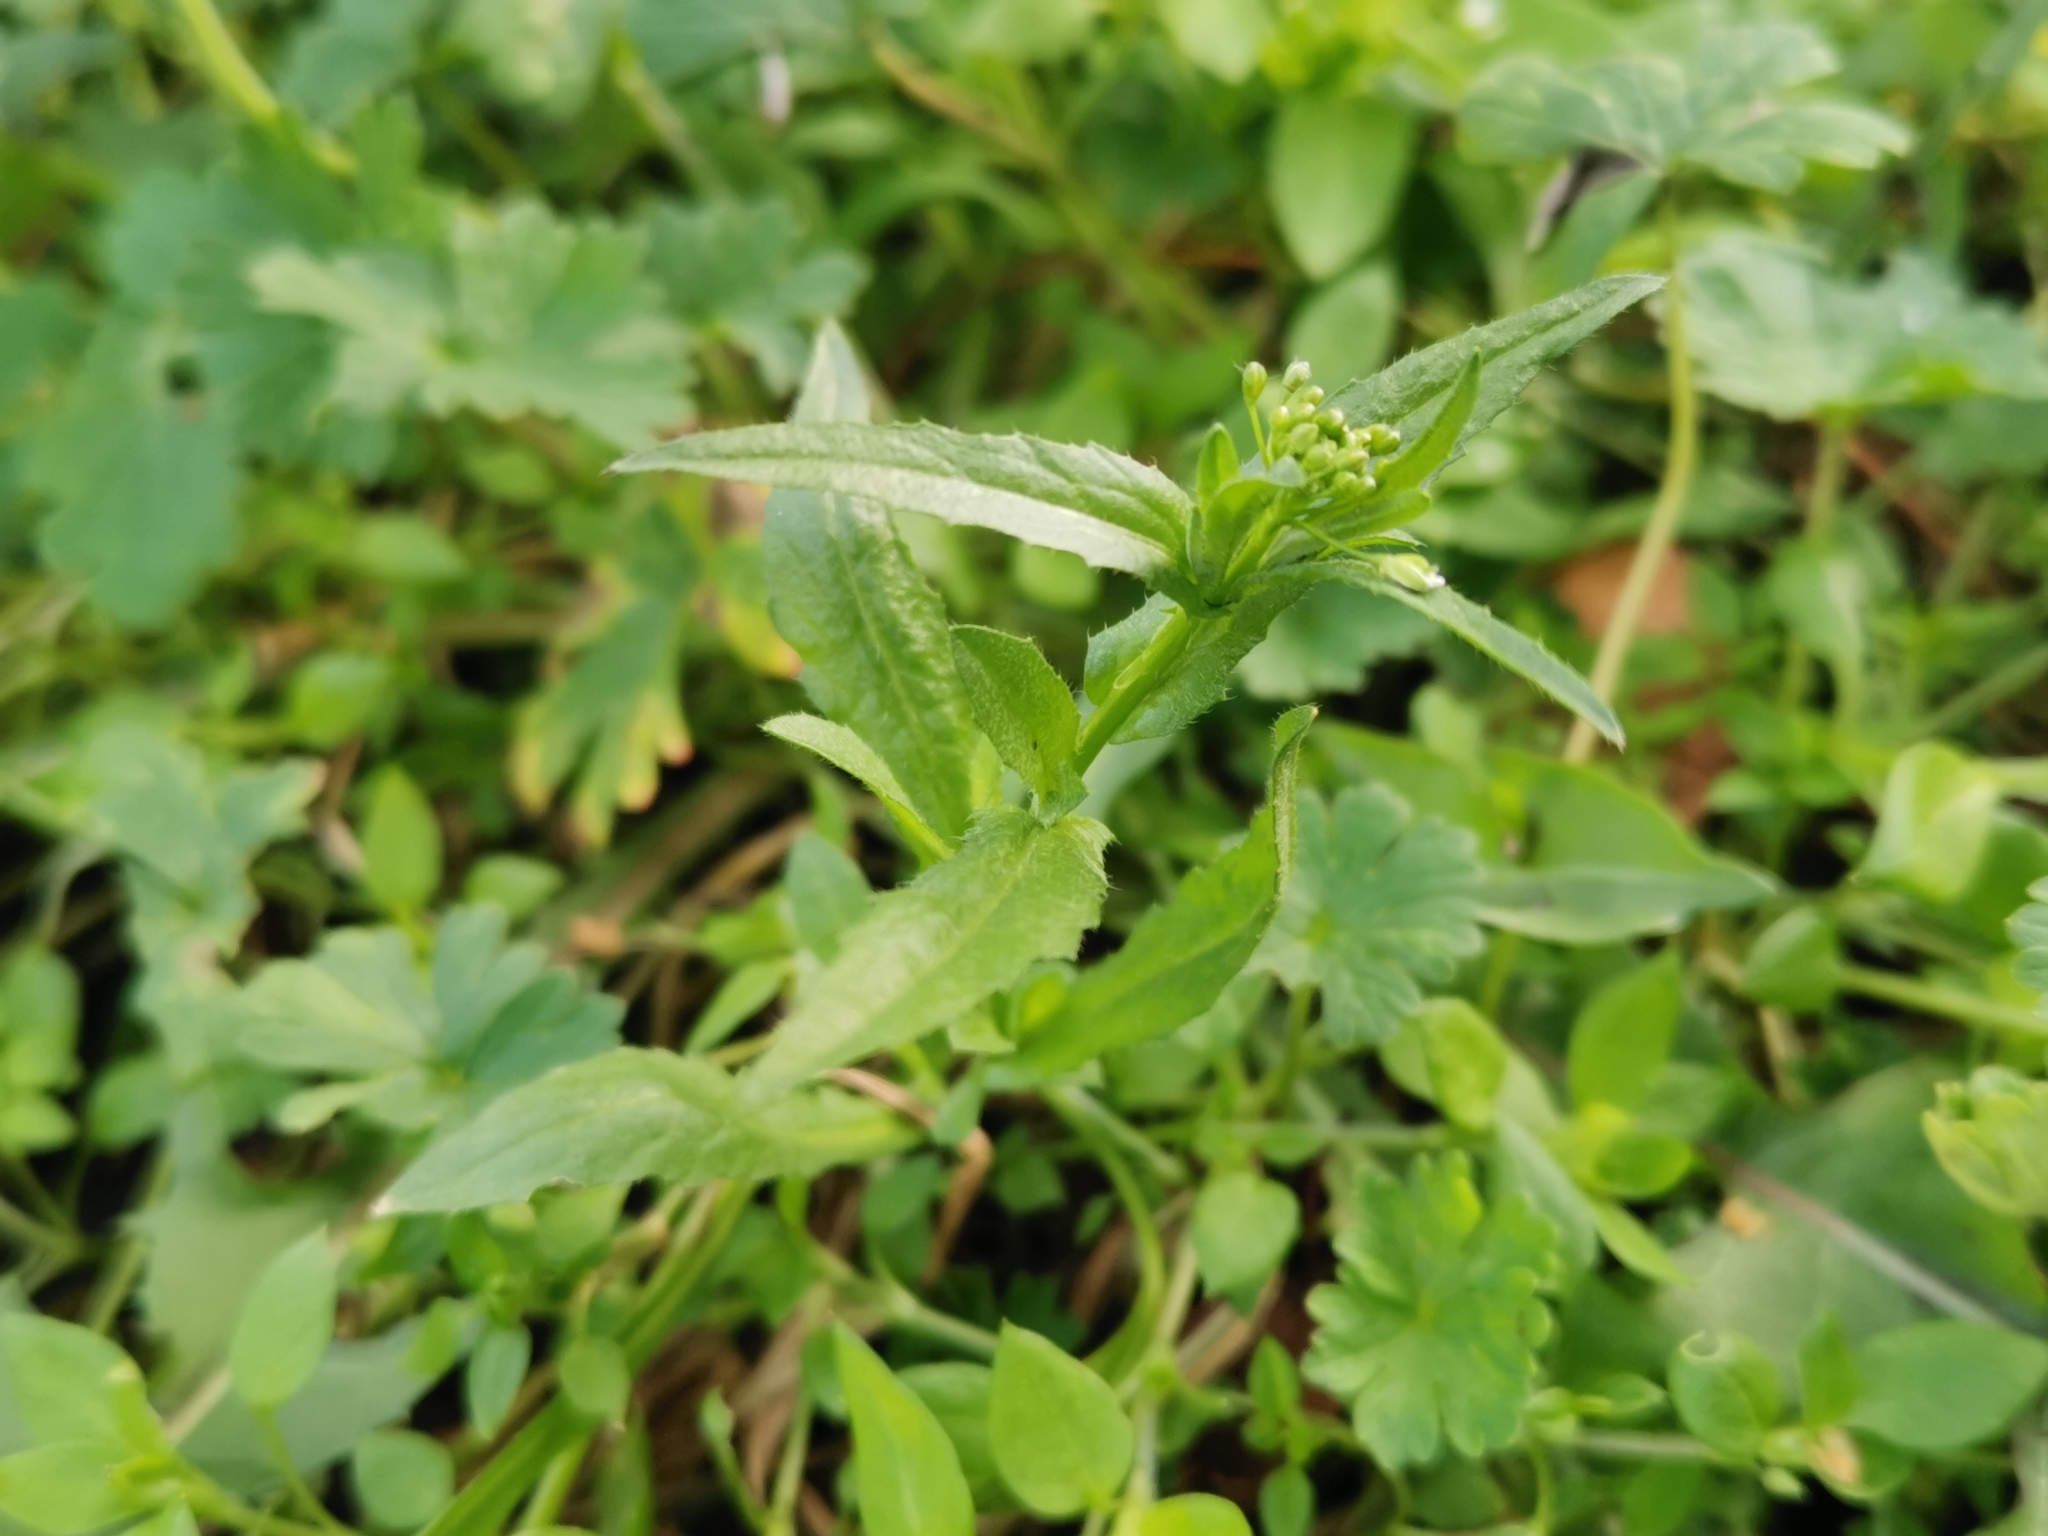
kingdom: Plantae
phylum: Tracheophyta
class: Magnoliopsida
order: Brassicales
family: Brassicaceae
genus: Capsella
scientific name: Capsella bursa-pastoris
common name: Shepherd's purse
